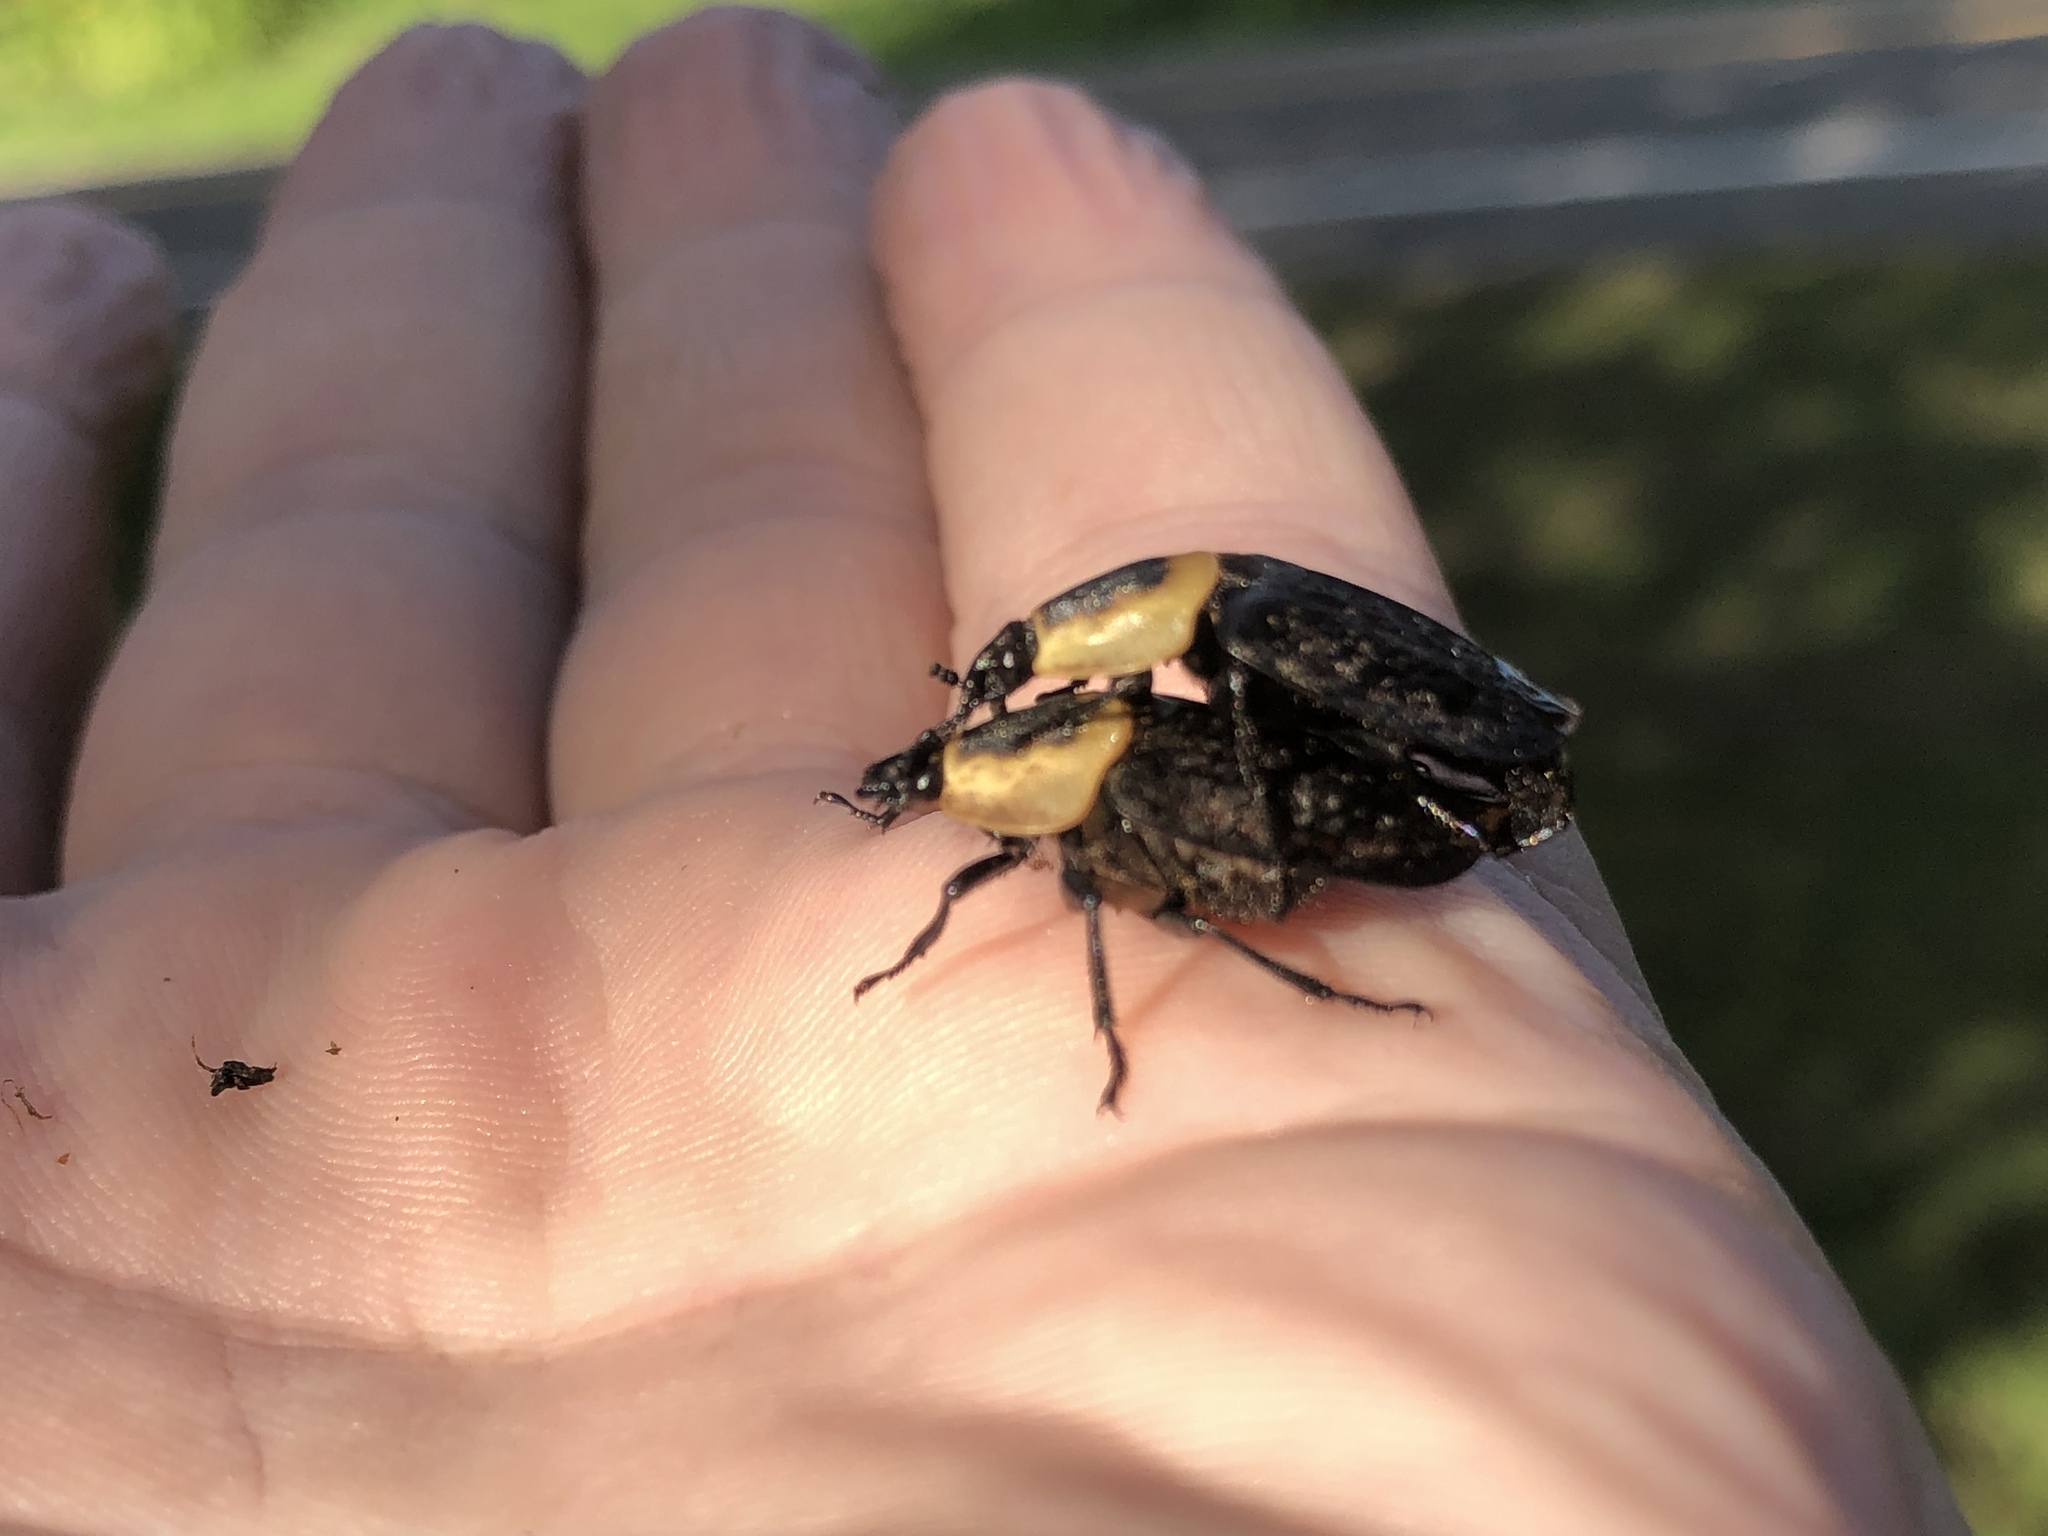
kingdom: Animalia
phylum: Arthropoda
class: Insecta
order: Coleoptera
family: Staphylinidae
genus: Necrophila
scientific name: Necrophila americana
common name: American carrion beetle
